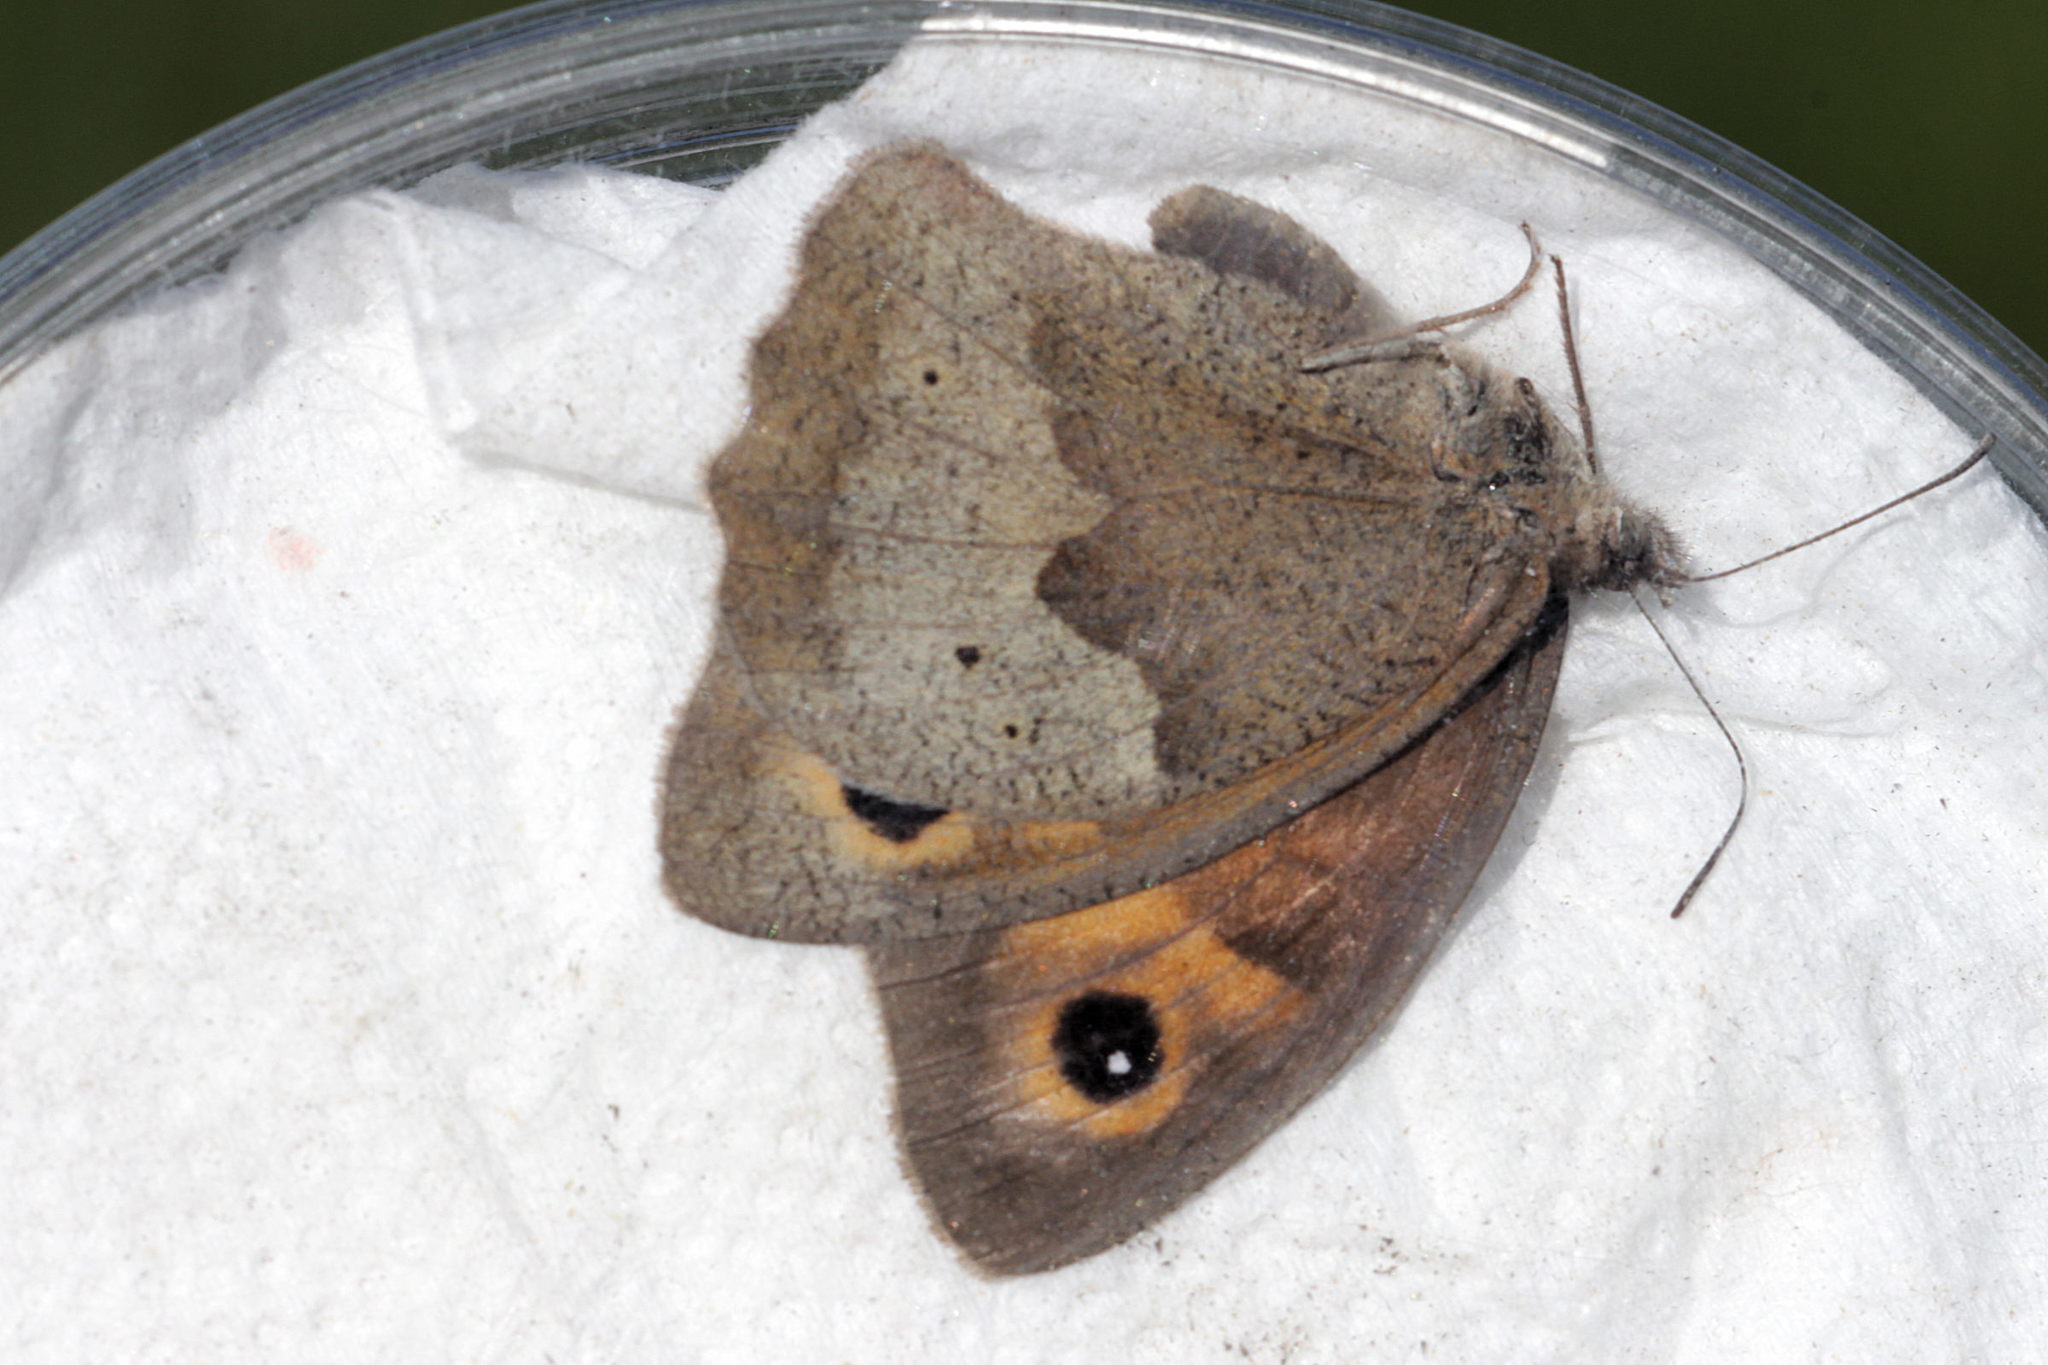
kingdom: Animalia
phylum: Arthropoda
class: Insecta
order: Lepidoptera
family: Nymphalidae
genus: Maniola
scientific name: Maniola jurtina
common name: Meadow brown
